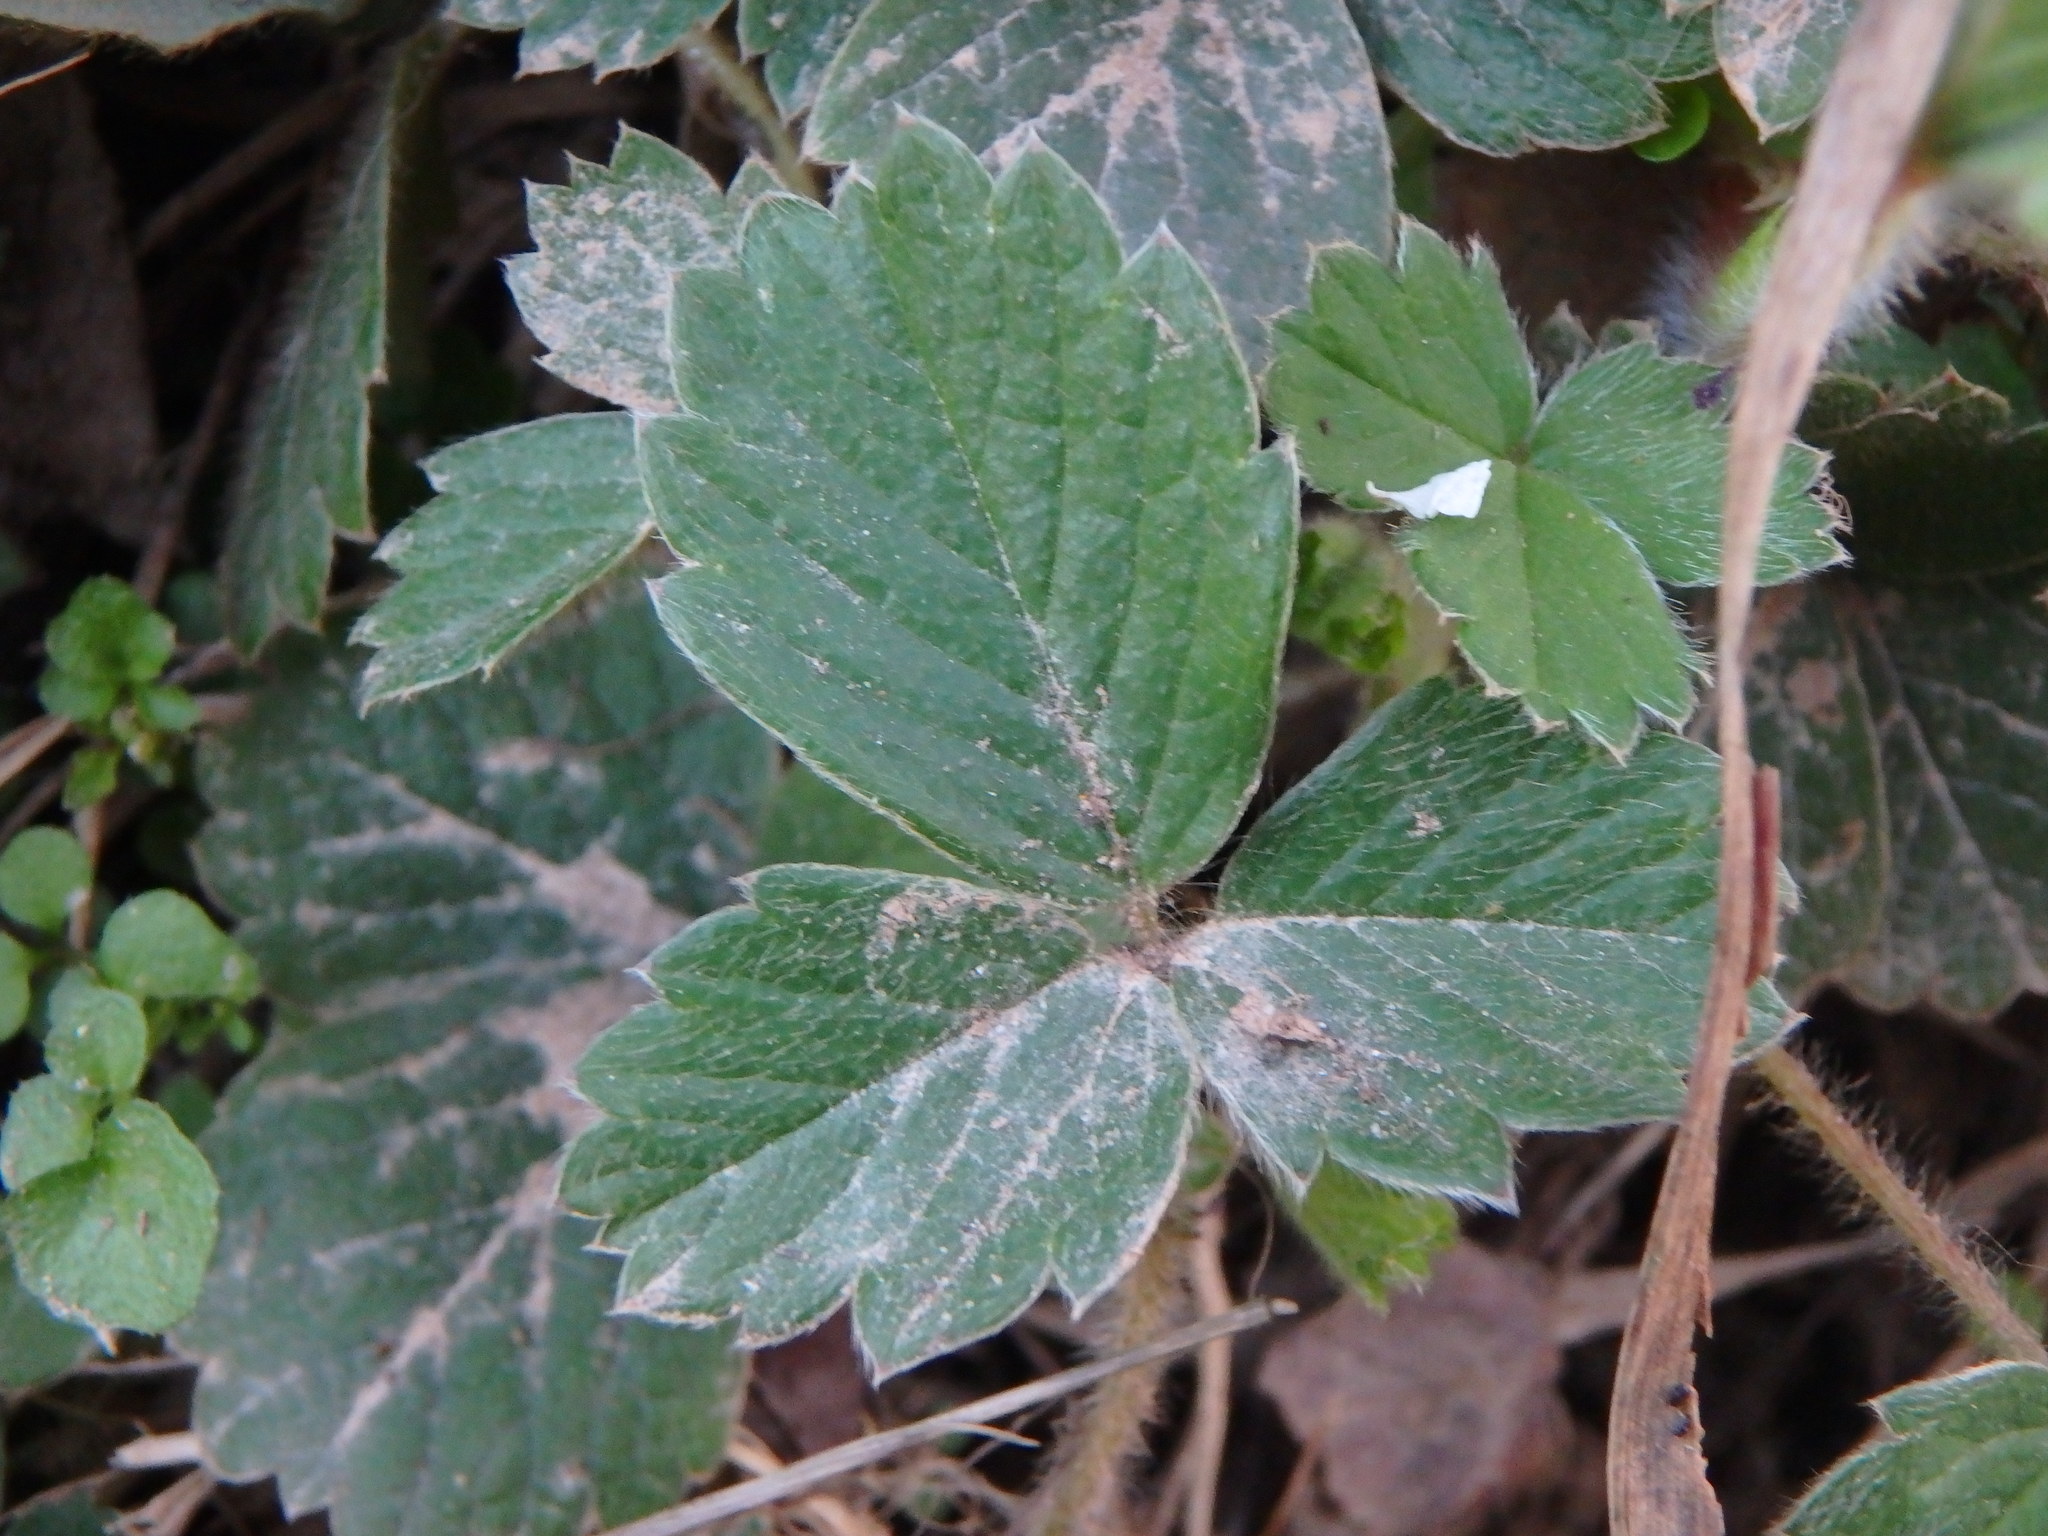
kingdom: Plantae
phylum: Tracheophyta
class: Magnoliopsida
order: Rosales
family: Rosaceae
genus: Potentilla
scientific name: Potentilla sterilis
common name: Barren strawberry
